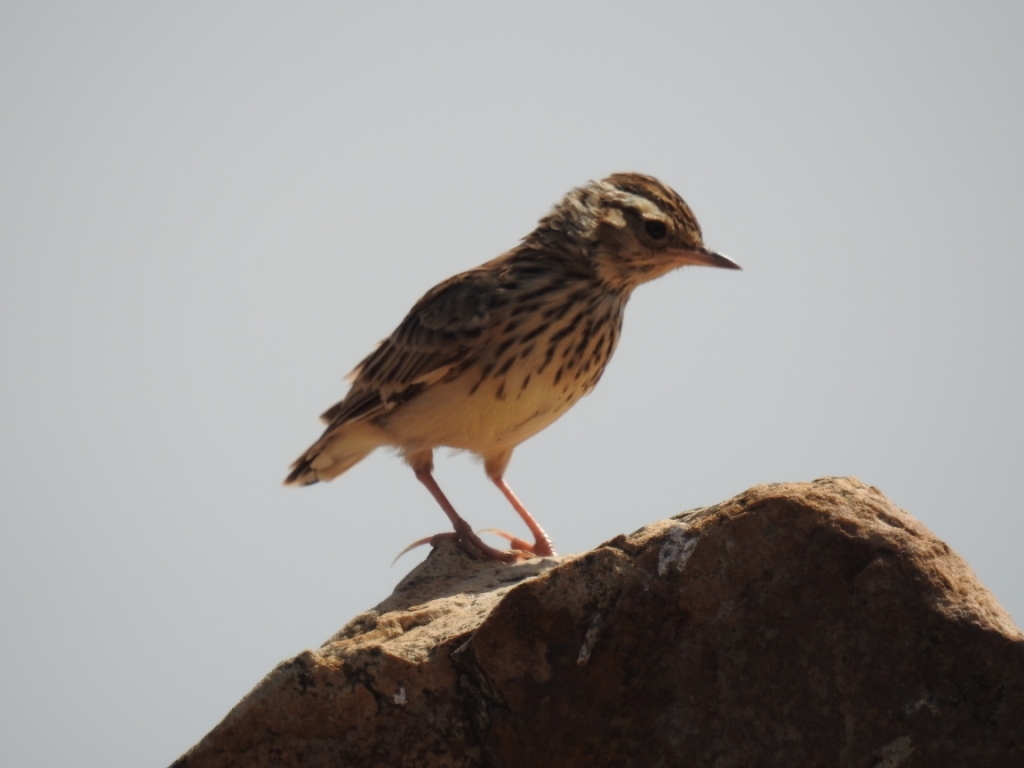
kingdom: Animalia
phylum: Chordata
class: Aves
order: Passeriformes
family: Alaudidae
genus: Lullula
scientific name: Lullula arborea
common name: Woodlark
